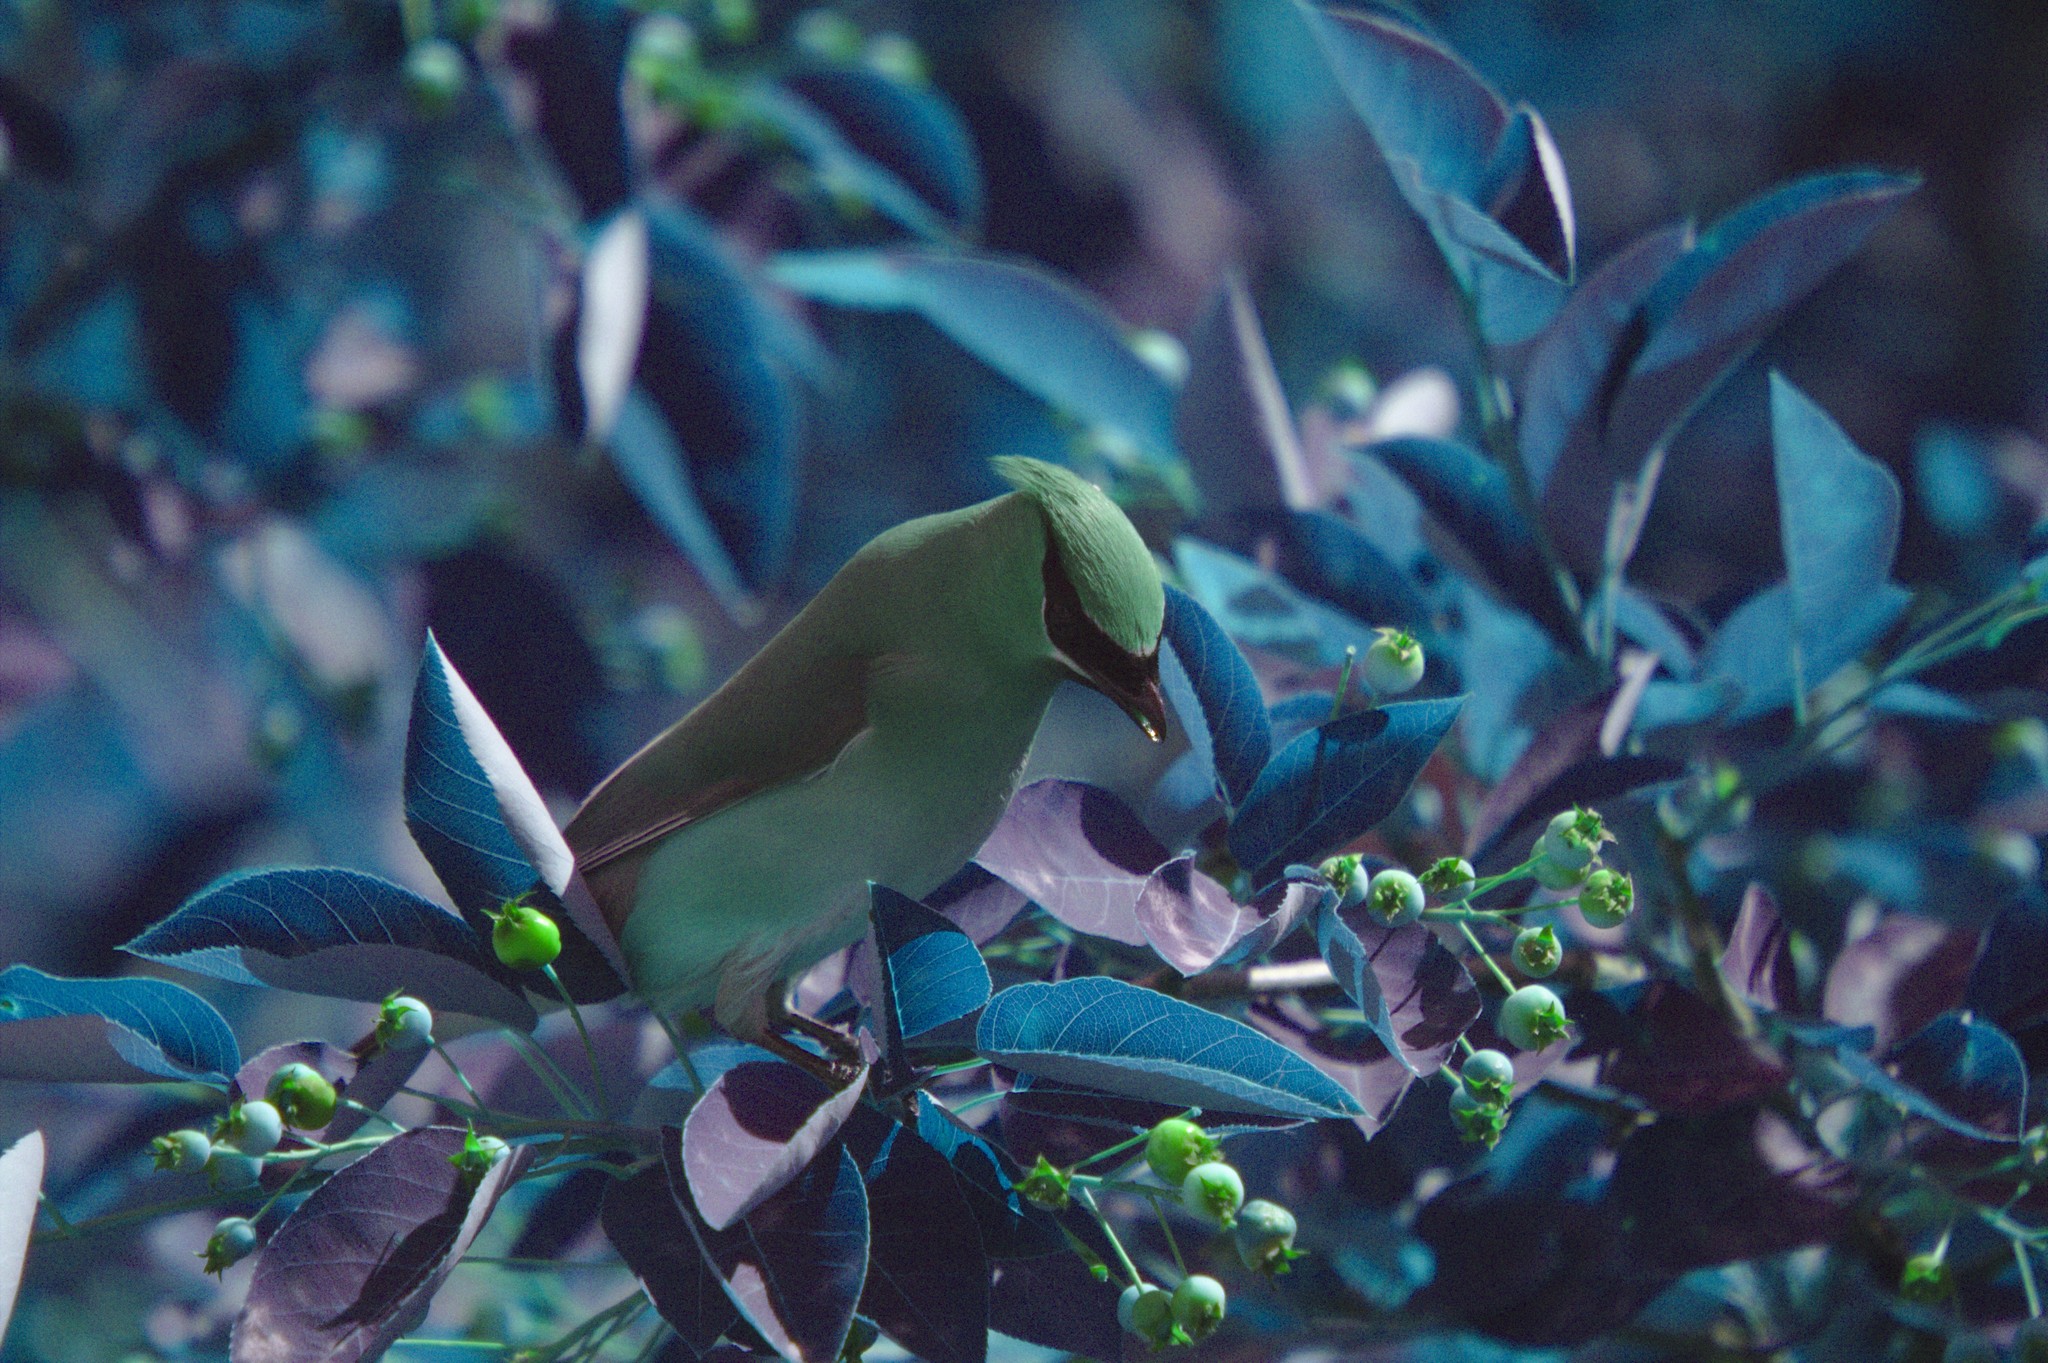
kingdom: Animalia
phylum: Chordata
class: Aves
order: Passeriformes
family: Bombycillidae
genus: Bombycilla
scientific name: Bombycilla cedrorum
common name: Cedar waxwing
